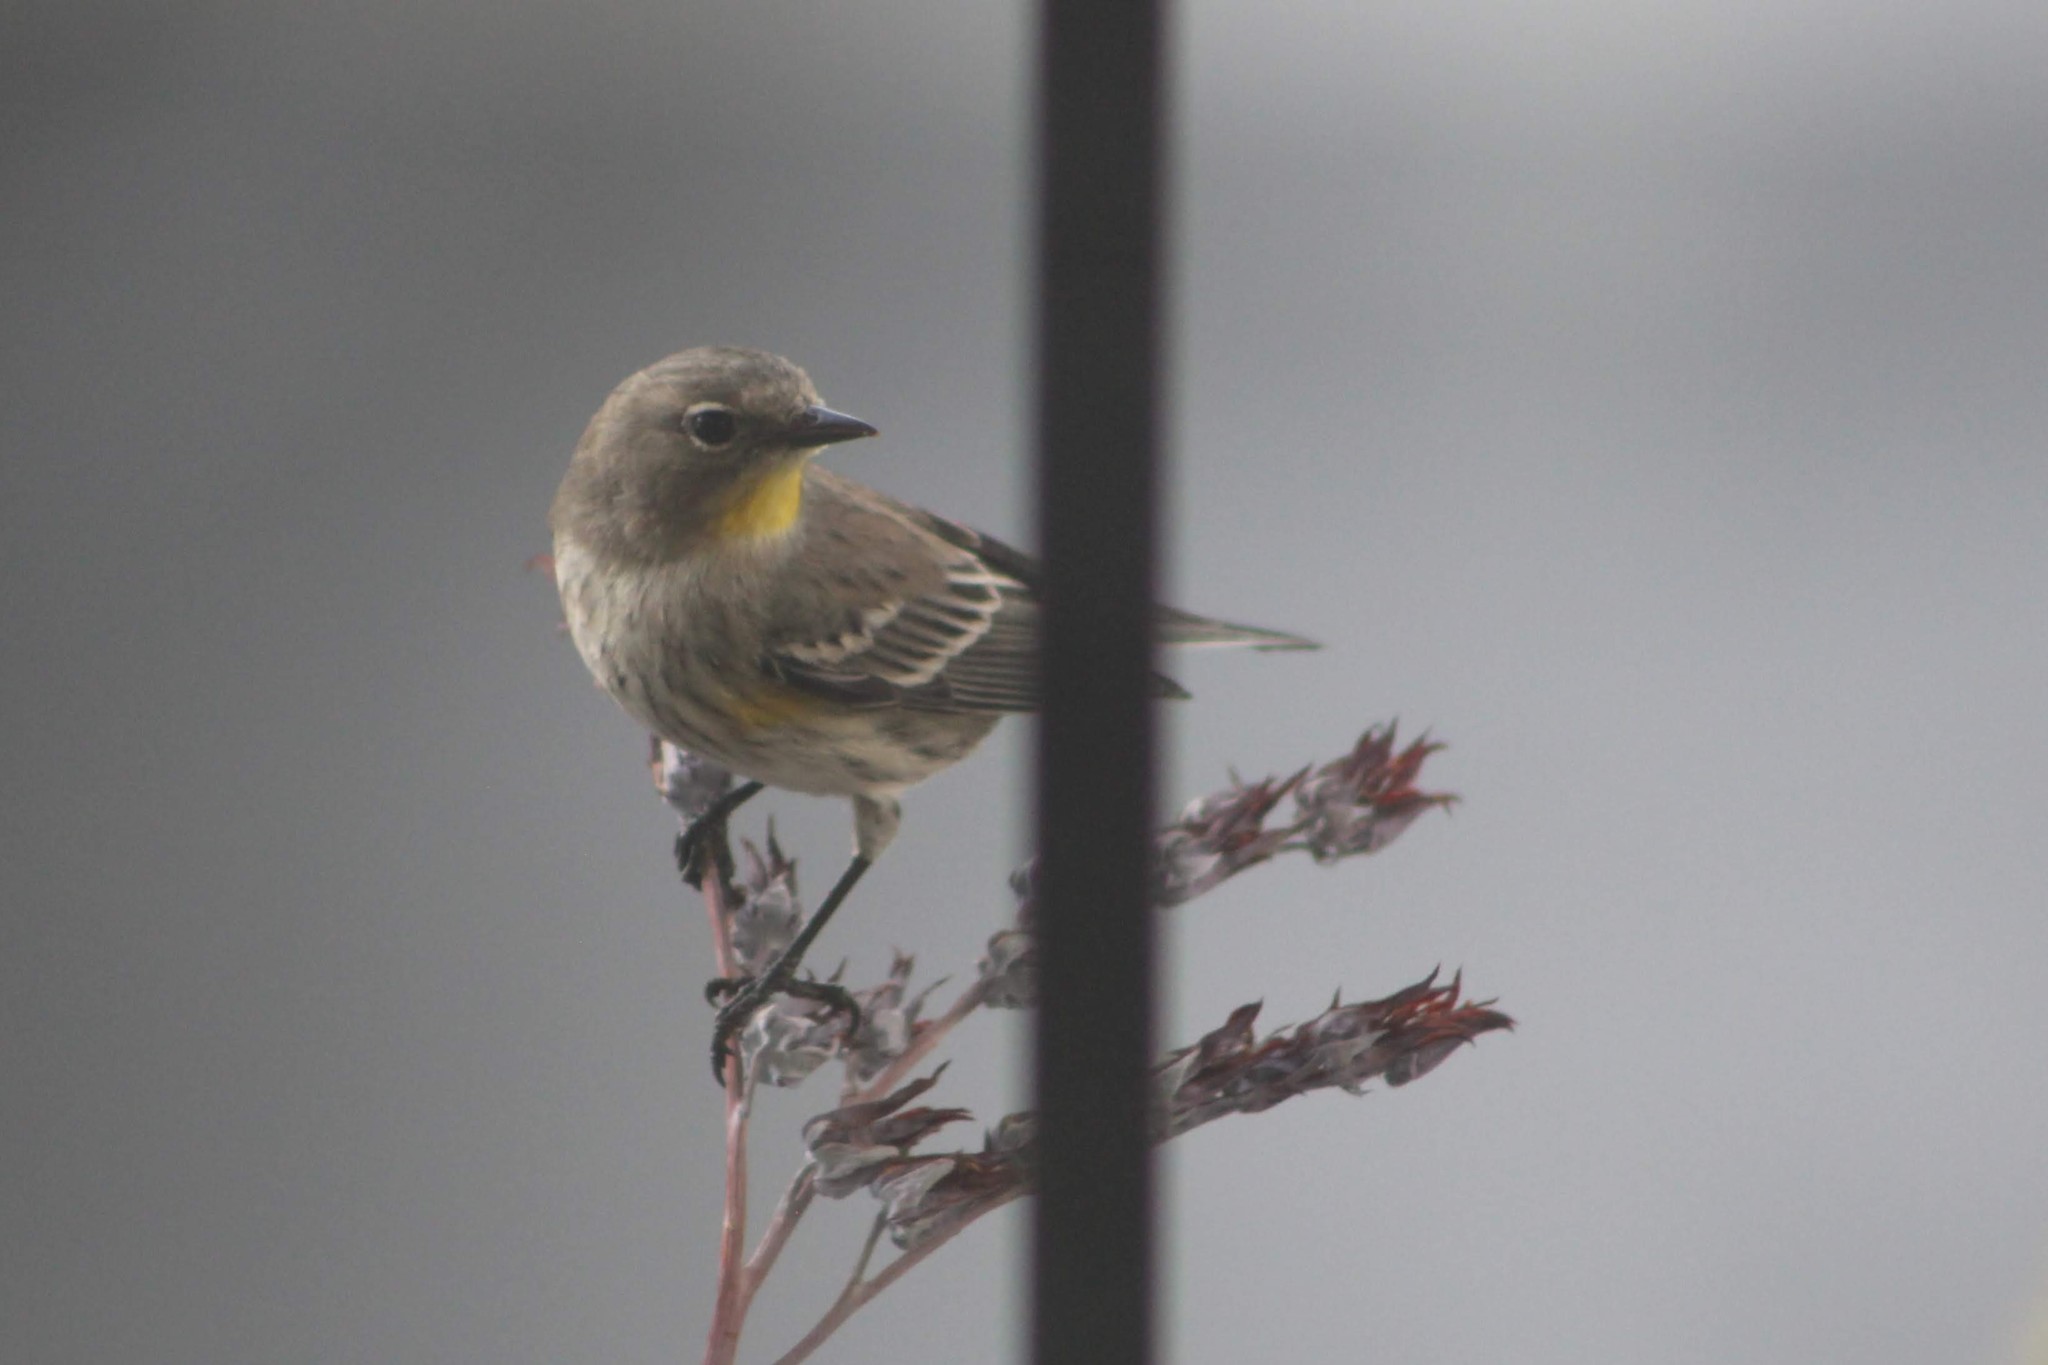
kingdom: Animalia
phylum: Chordata
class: Aves
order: Passeriformes
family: Parulidae
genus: Setophaga
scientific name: Setophaga coronata
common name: Myrtle warbler
